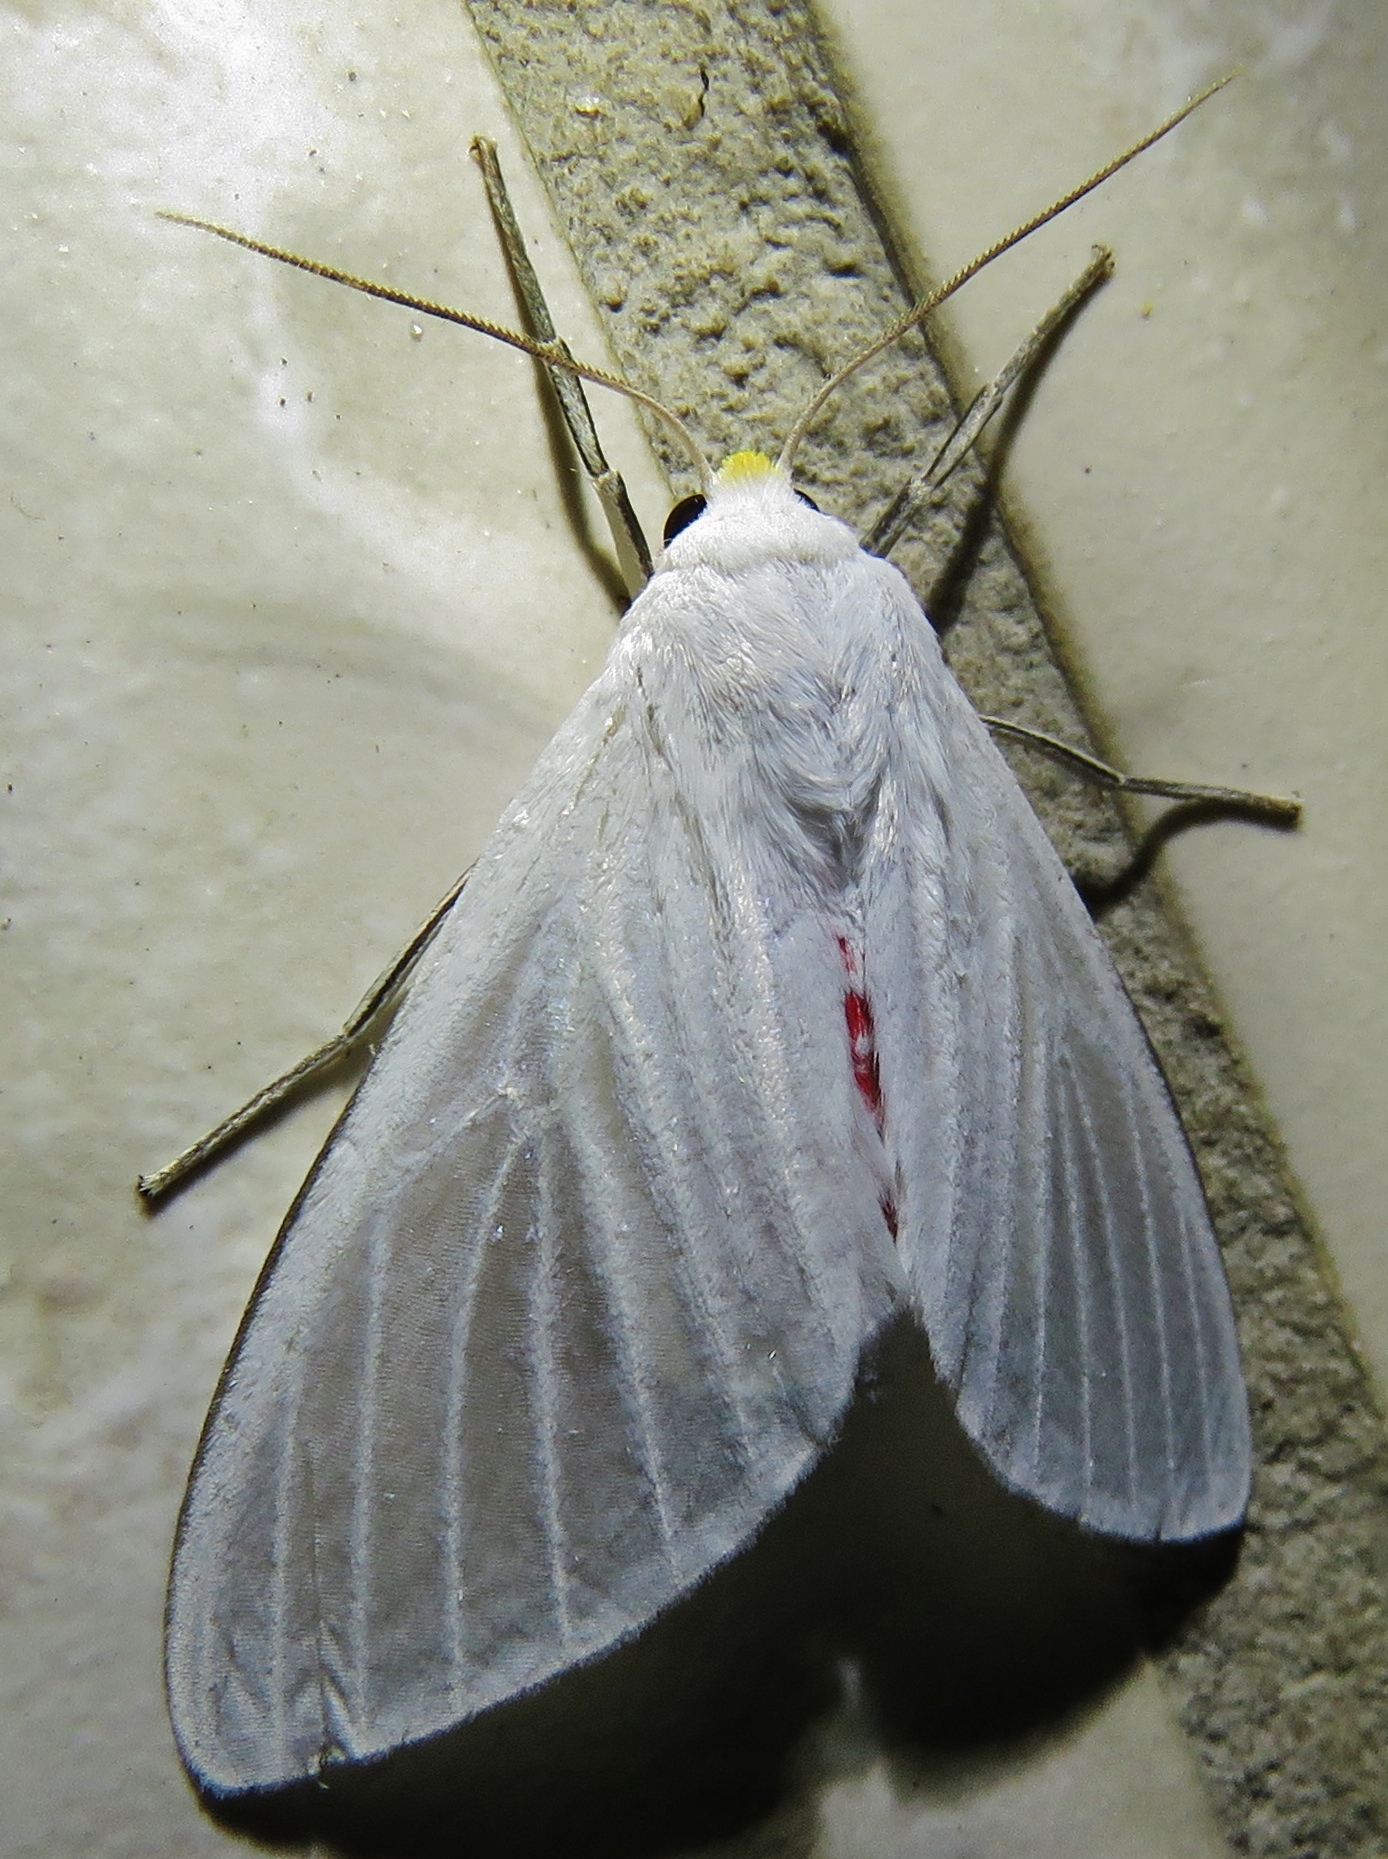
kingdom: Animalia
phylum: Arthropoda
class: Insecta
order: Lepidoptera
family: Erebidae
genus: Eupseudosoma
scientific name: Eupseudosoma involuta
